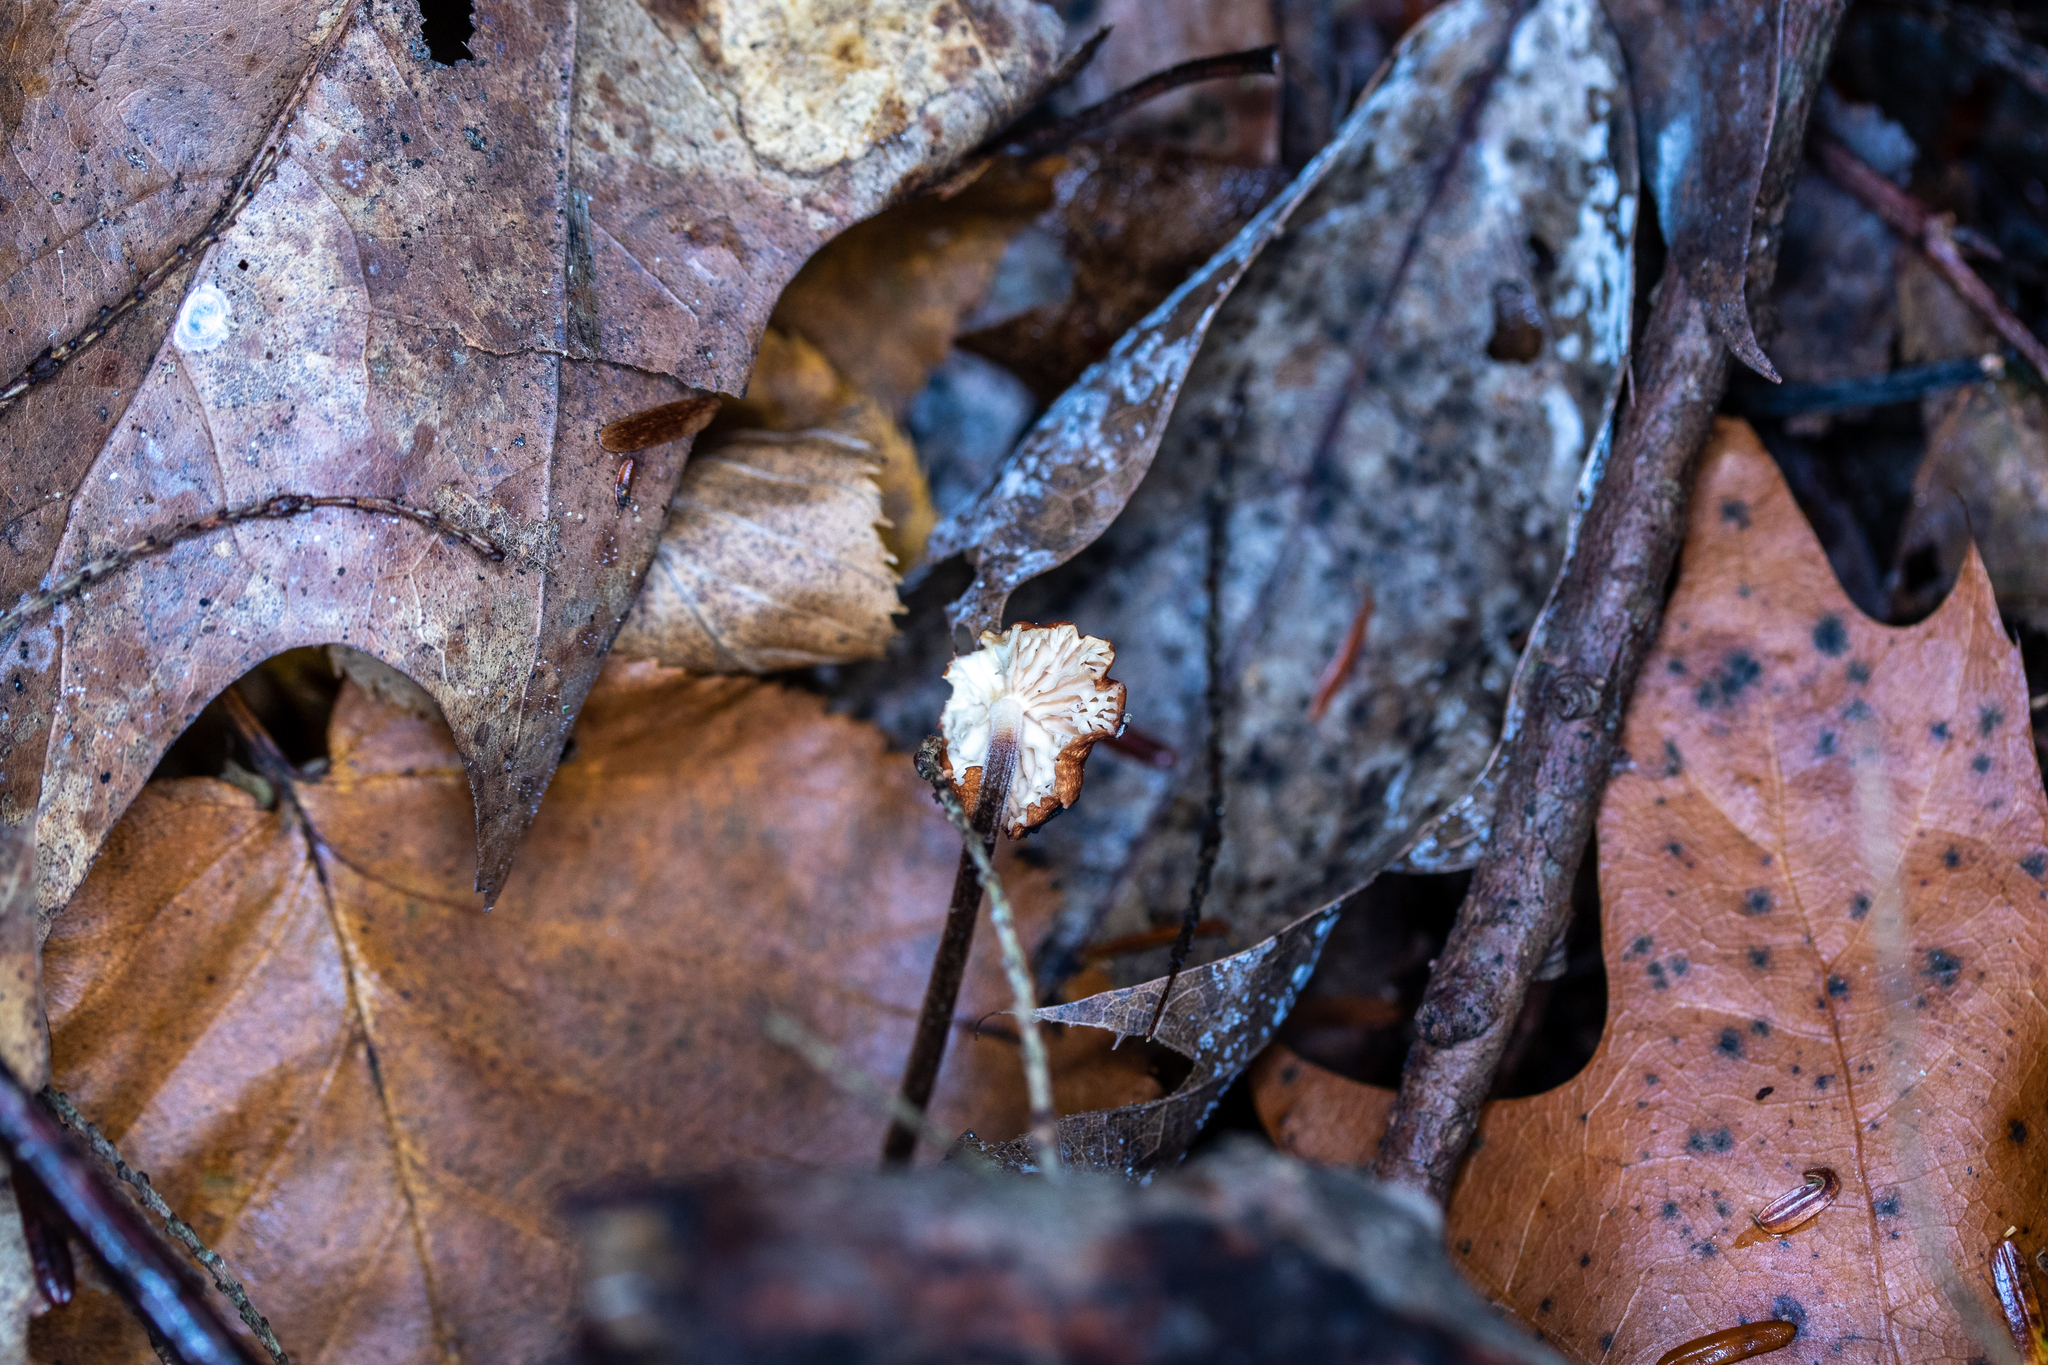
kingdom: Fungi
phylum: Basidiomycota
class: Agaricomycetes
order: Agaricales
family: Physalacriaceae
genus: Rhizomarasmius
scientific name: Rhizomarasmius pyrrhocephalus
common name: Hairy long stem marasmius
